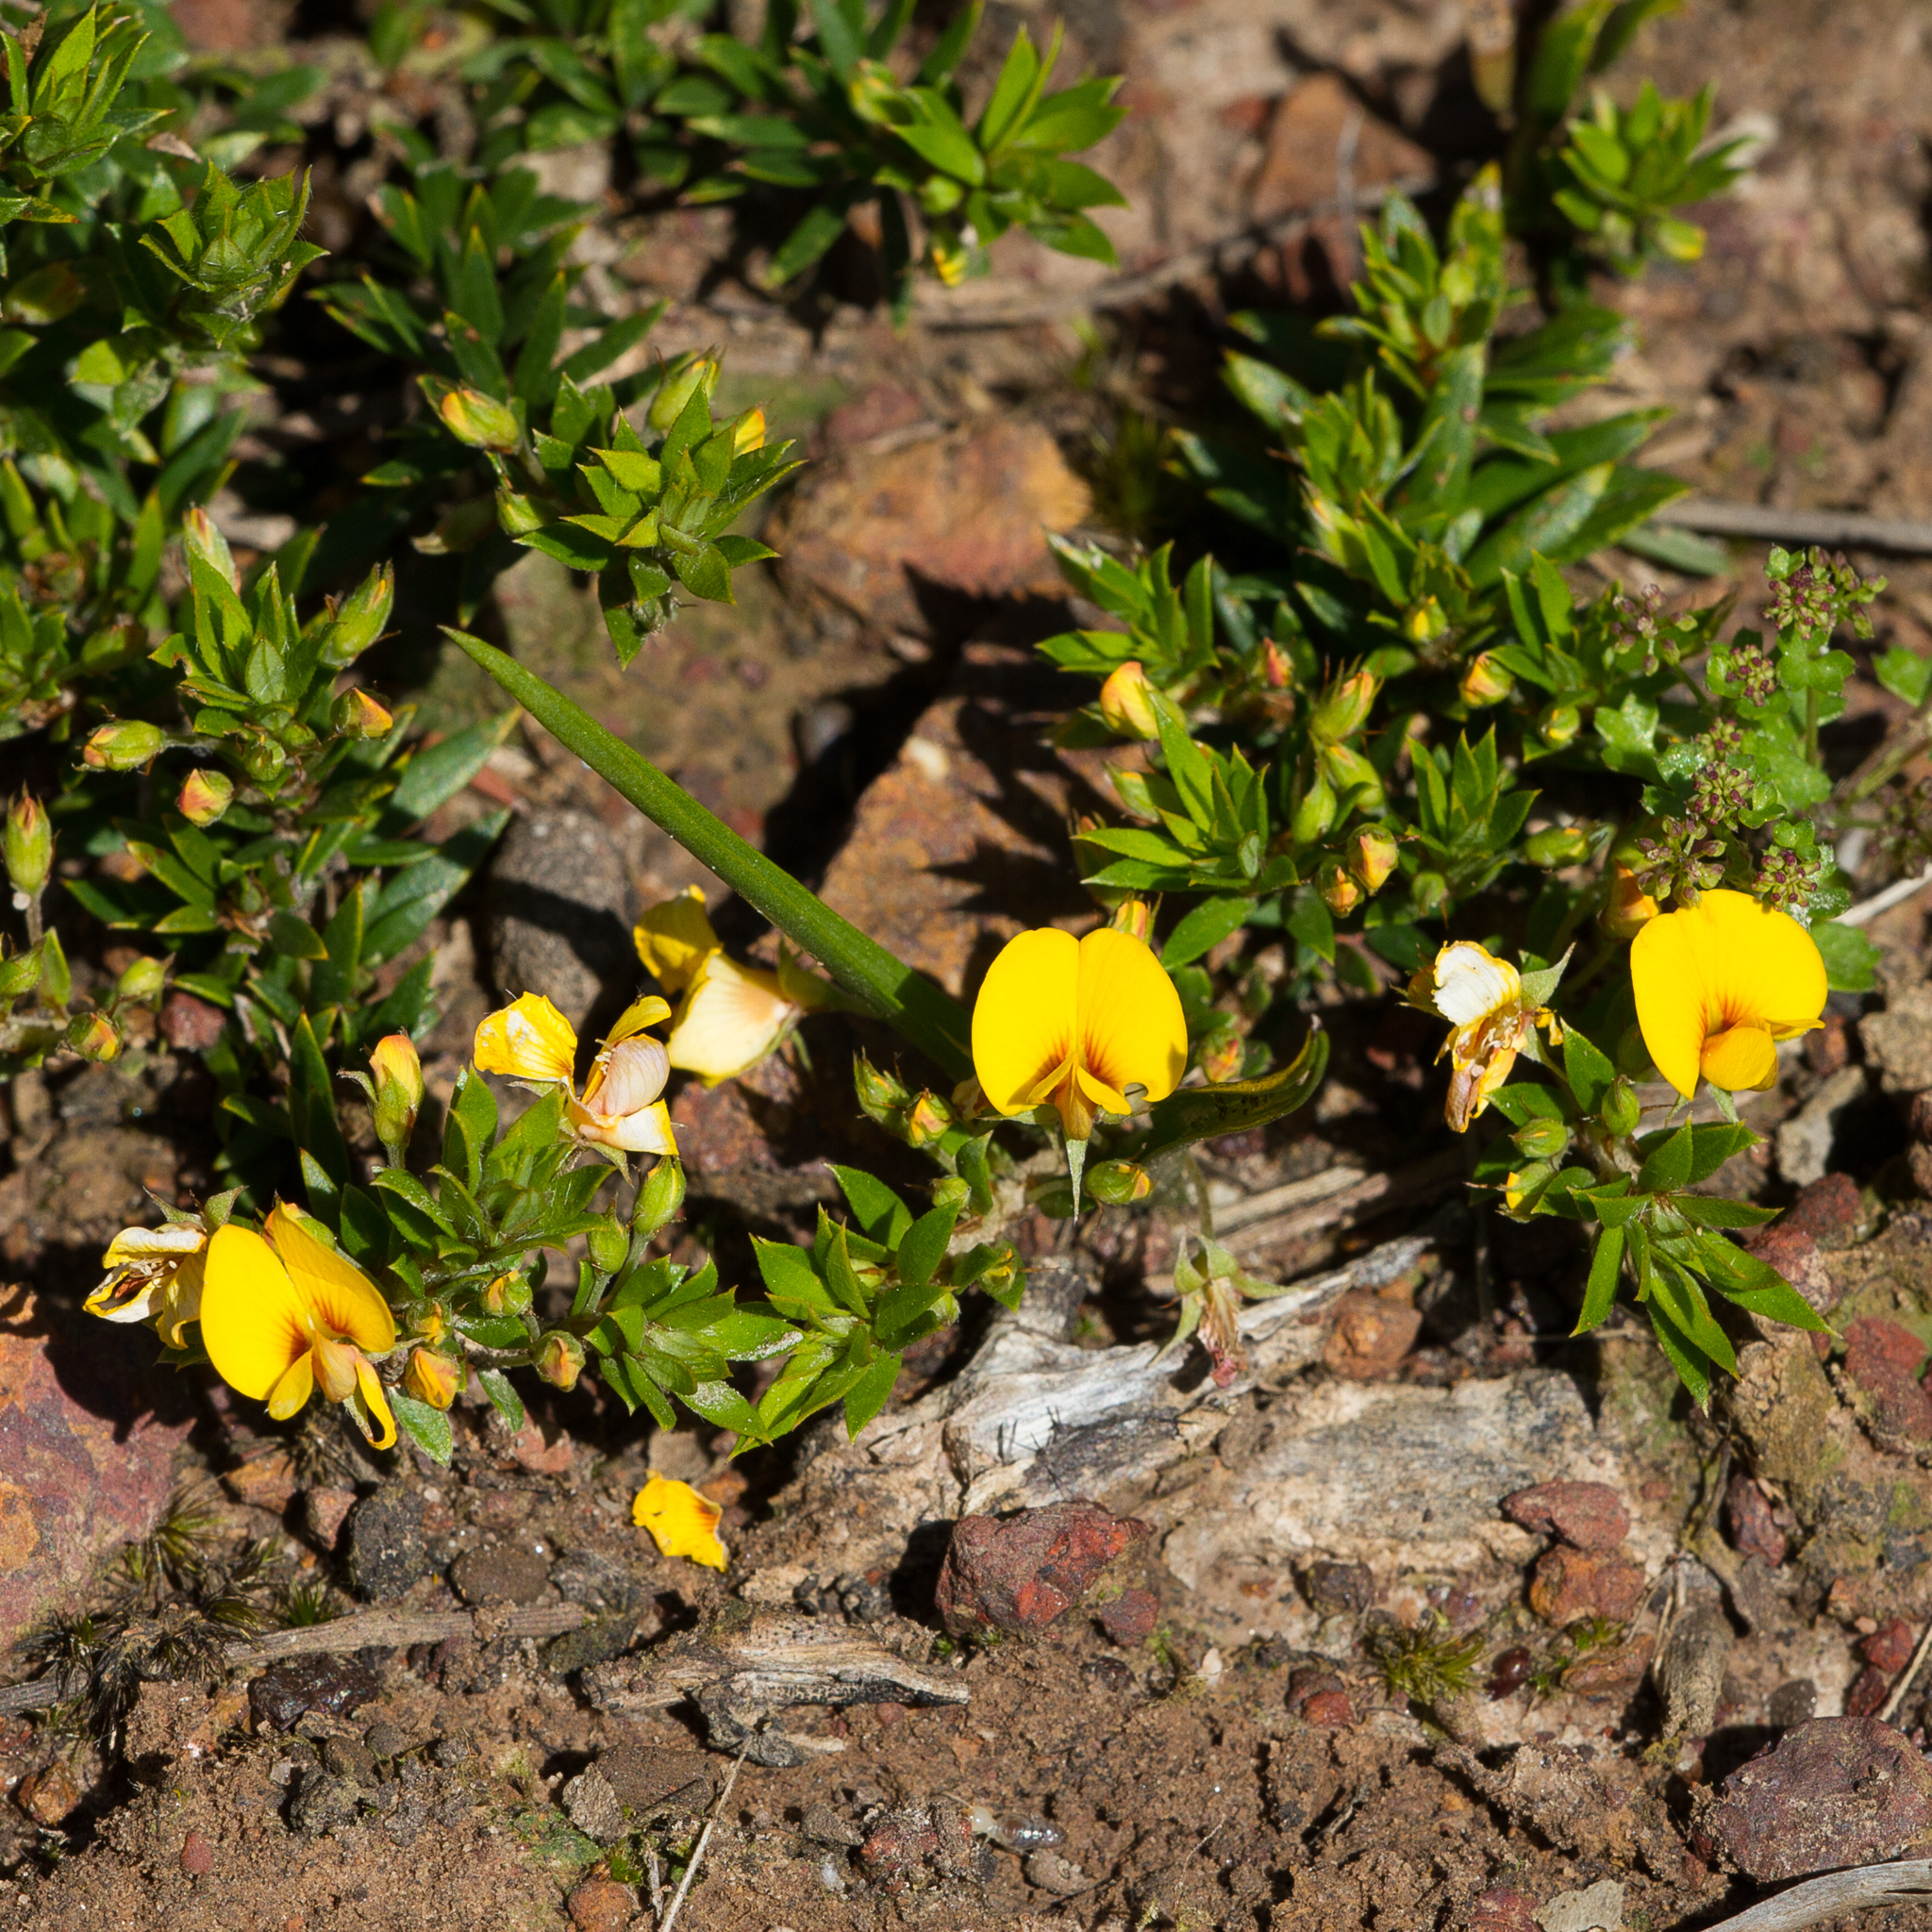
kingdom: Plantae
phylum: Tracheophyta
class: Magnoliopsida
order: Fabales
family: Fabaceae
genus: Pultenaea
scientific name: Pultenaea pedunculata
